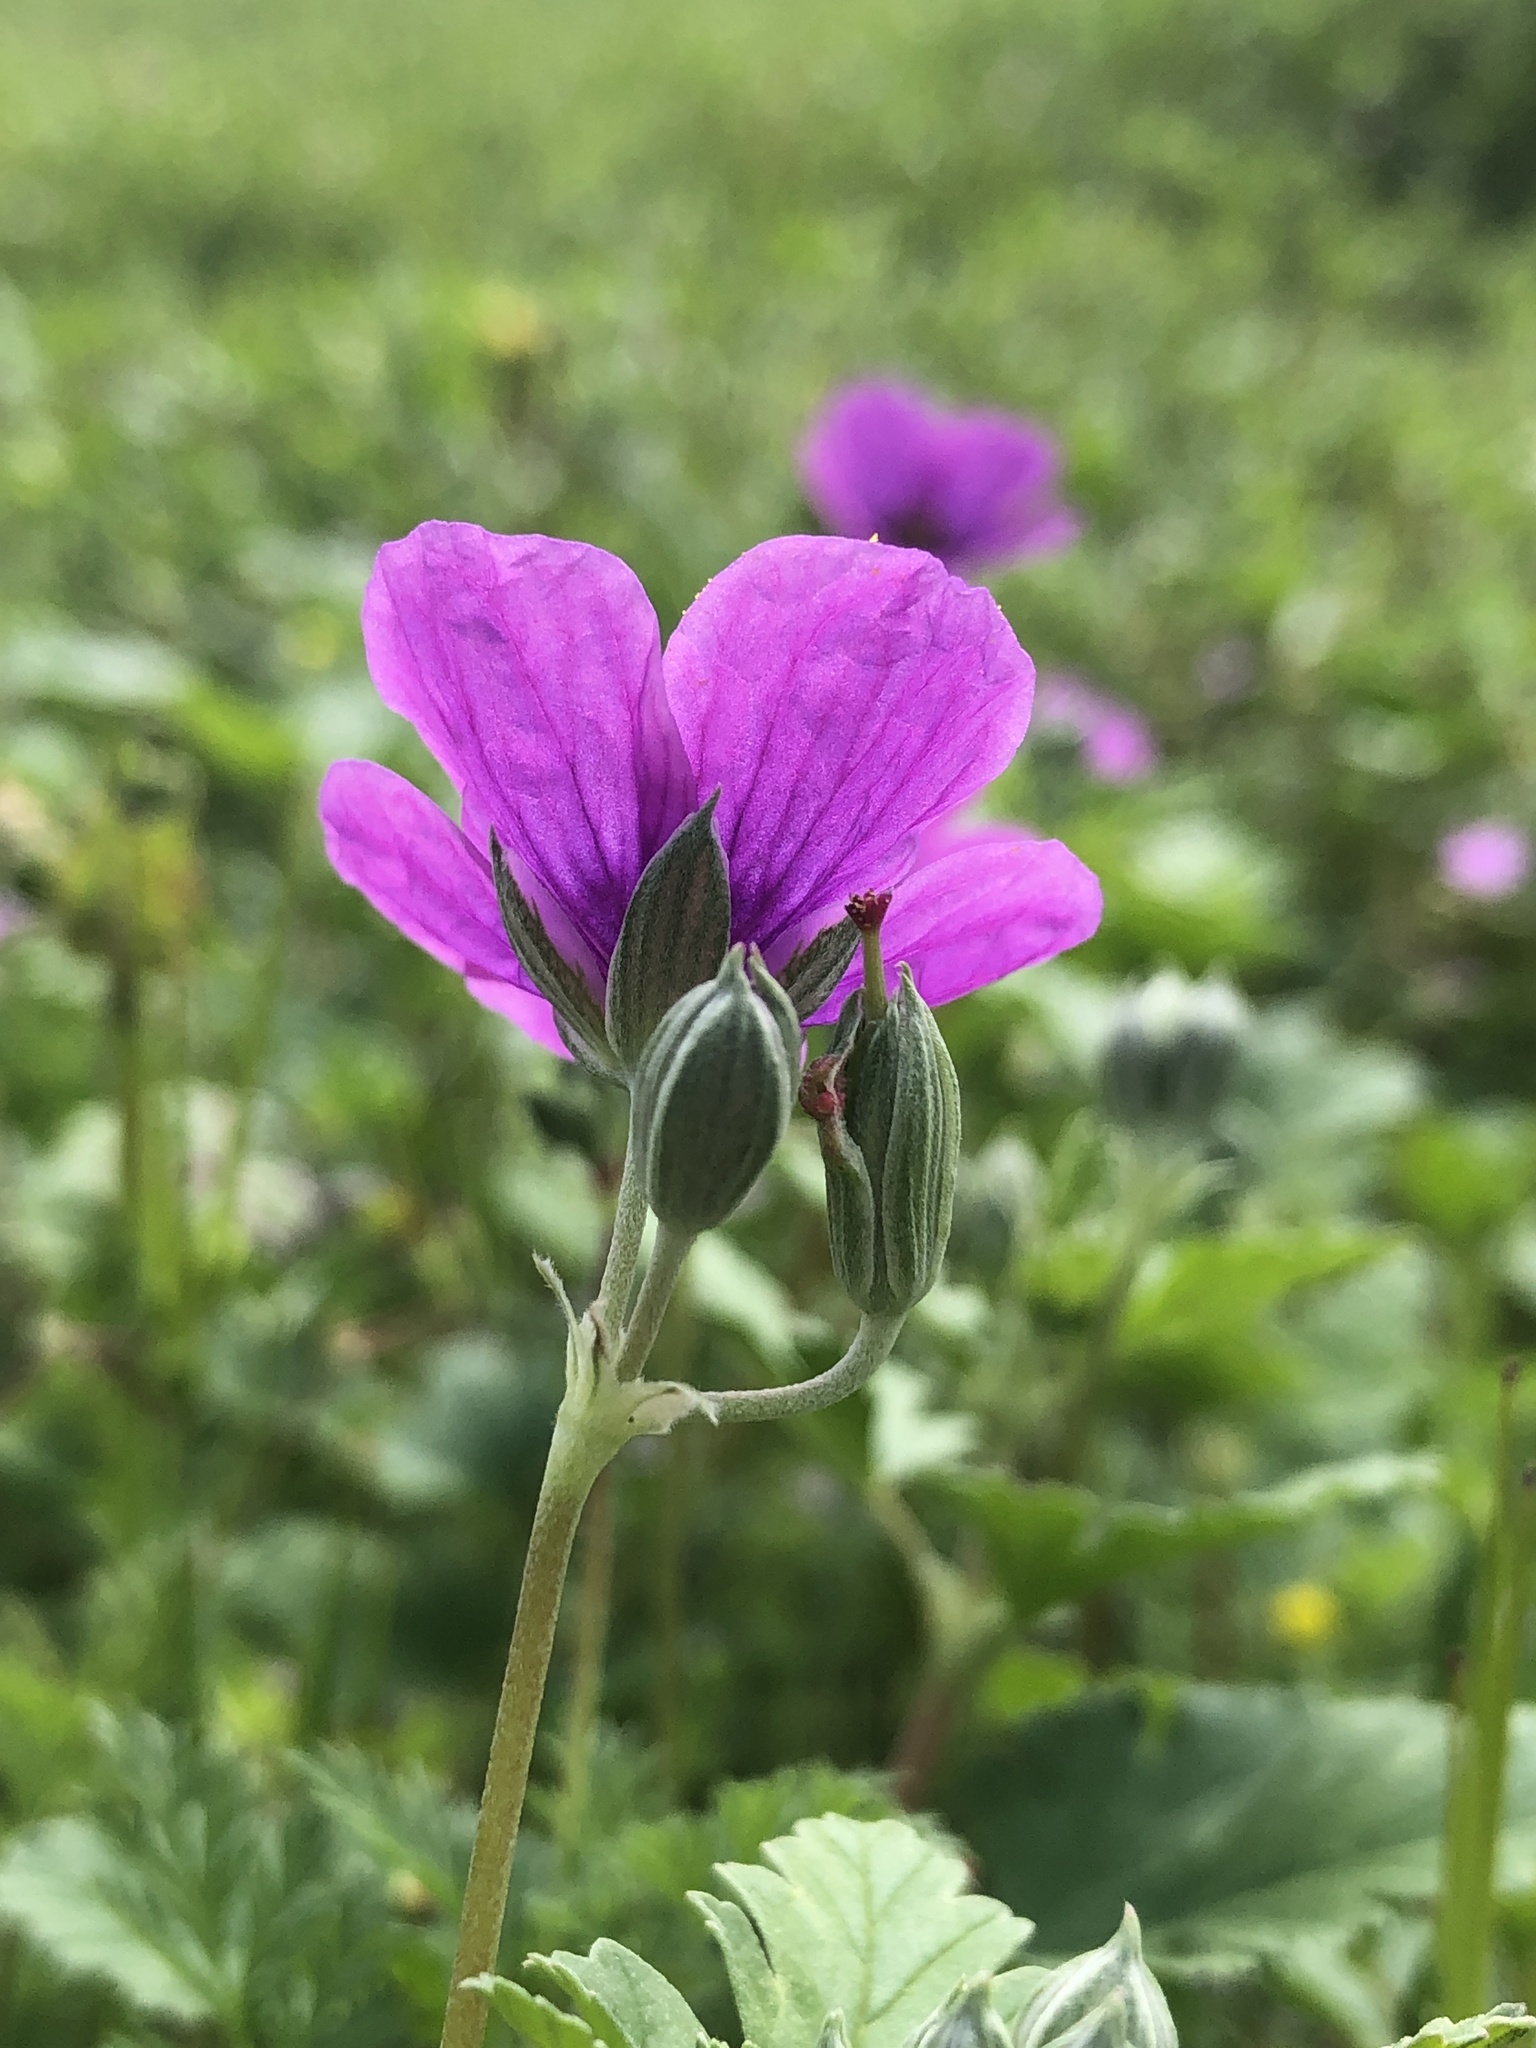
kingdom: Plantae
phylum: Tracheophyta
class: Magnoliopsida
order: Geraniales
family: Geraniaceae
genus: Erodium
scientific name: Erodium texanum
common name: Texas stork's-bill
